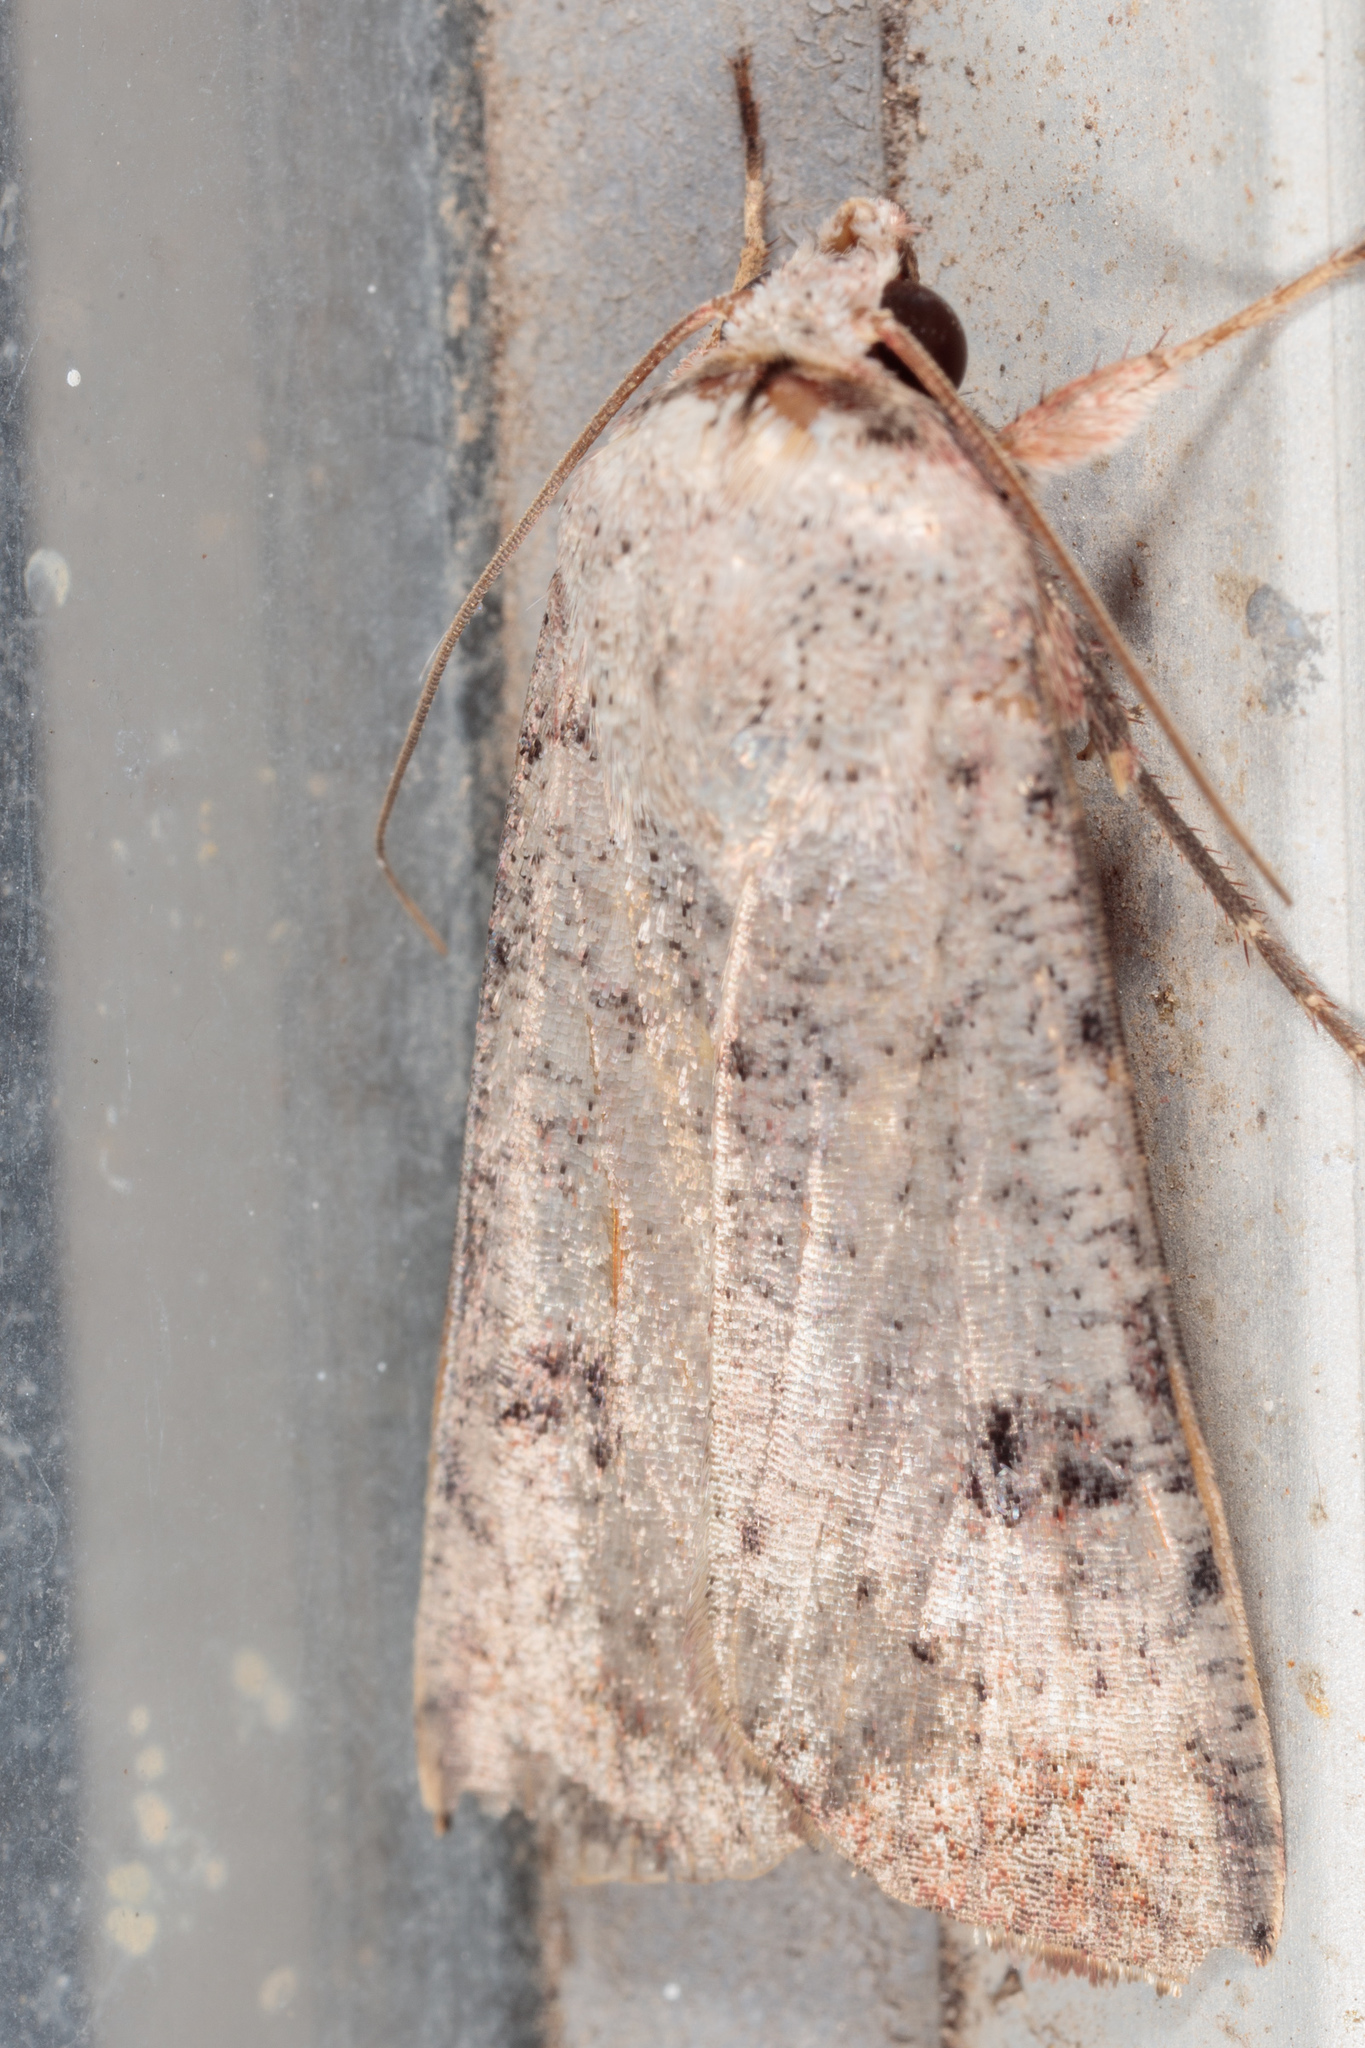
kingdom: Animalia
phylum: Arthropoda
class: Insecta
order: Lepidoptera
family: Noctuidae
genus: Anicla
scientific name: Anicla infecta
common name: Green cutworm
